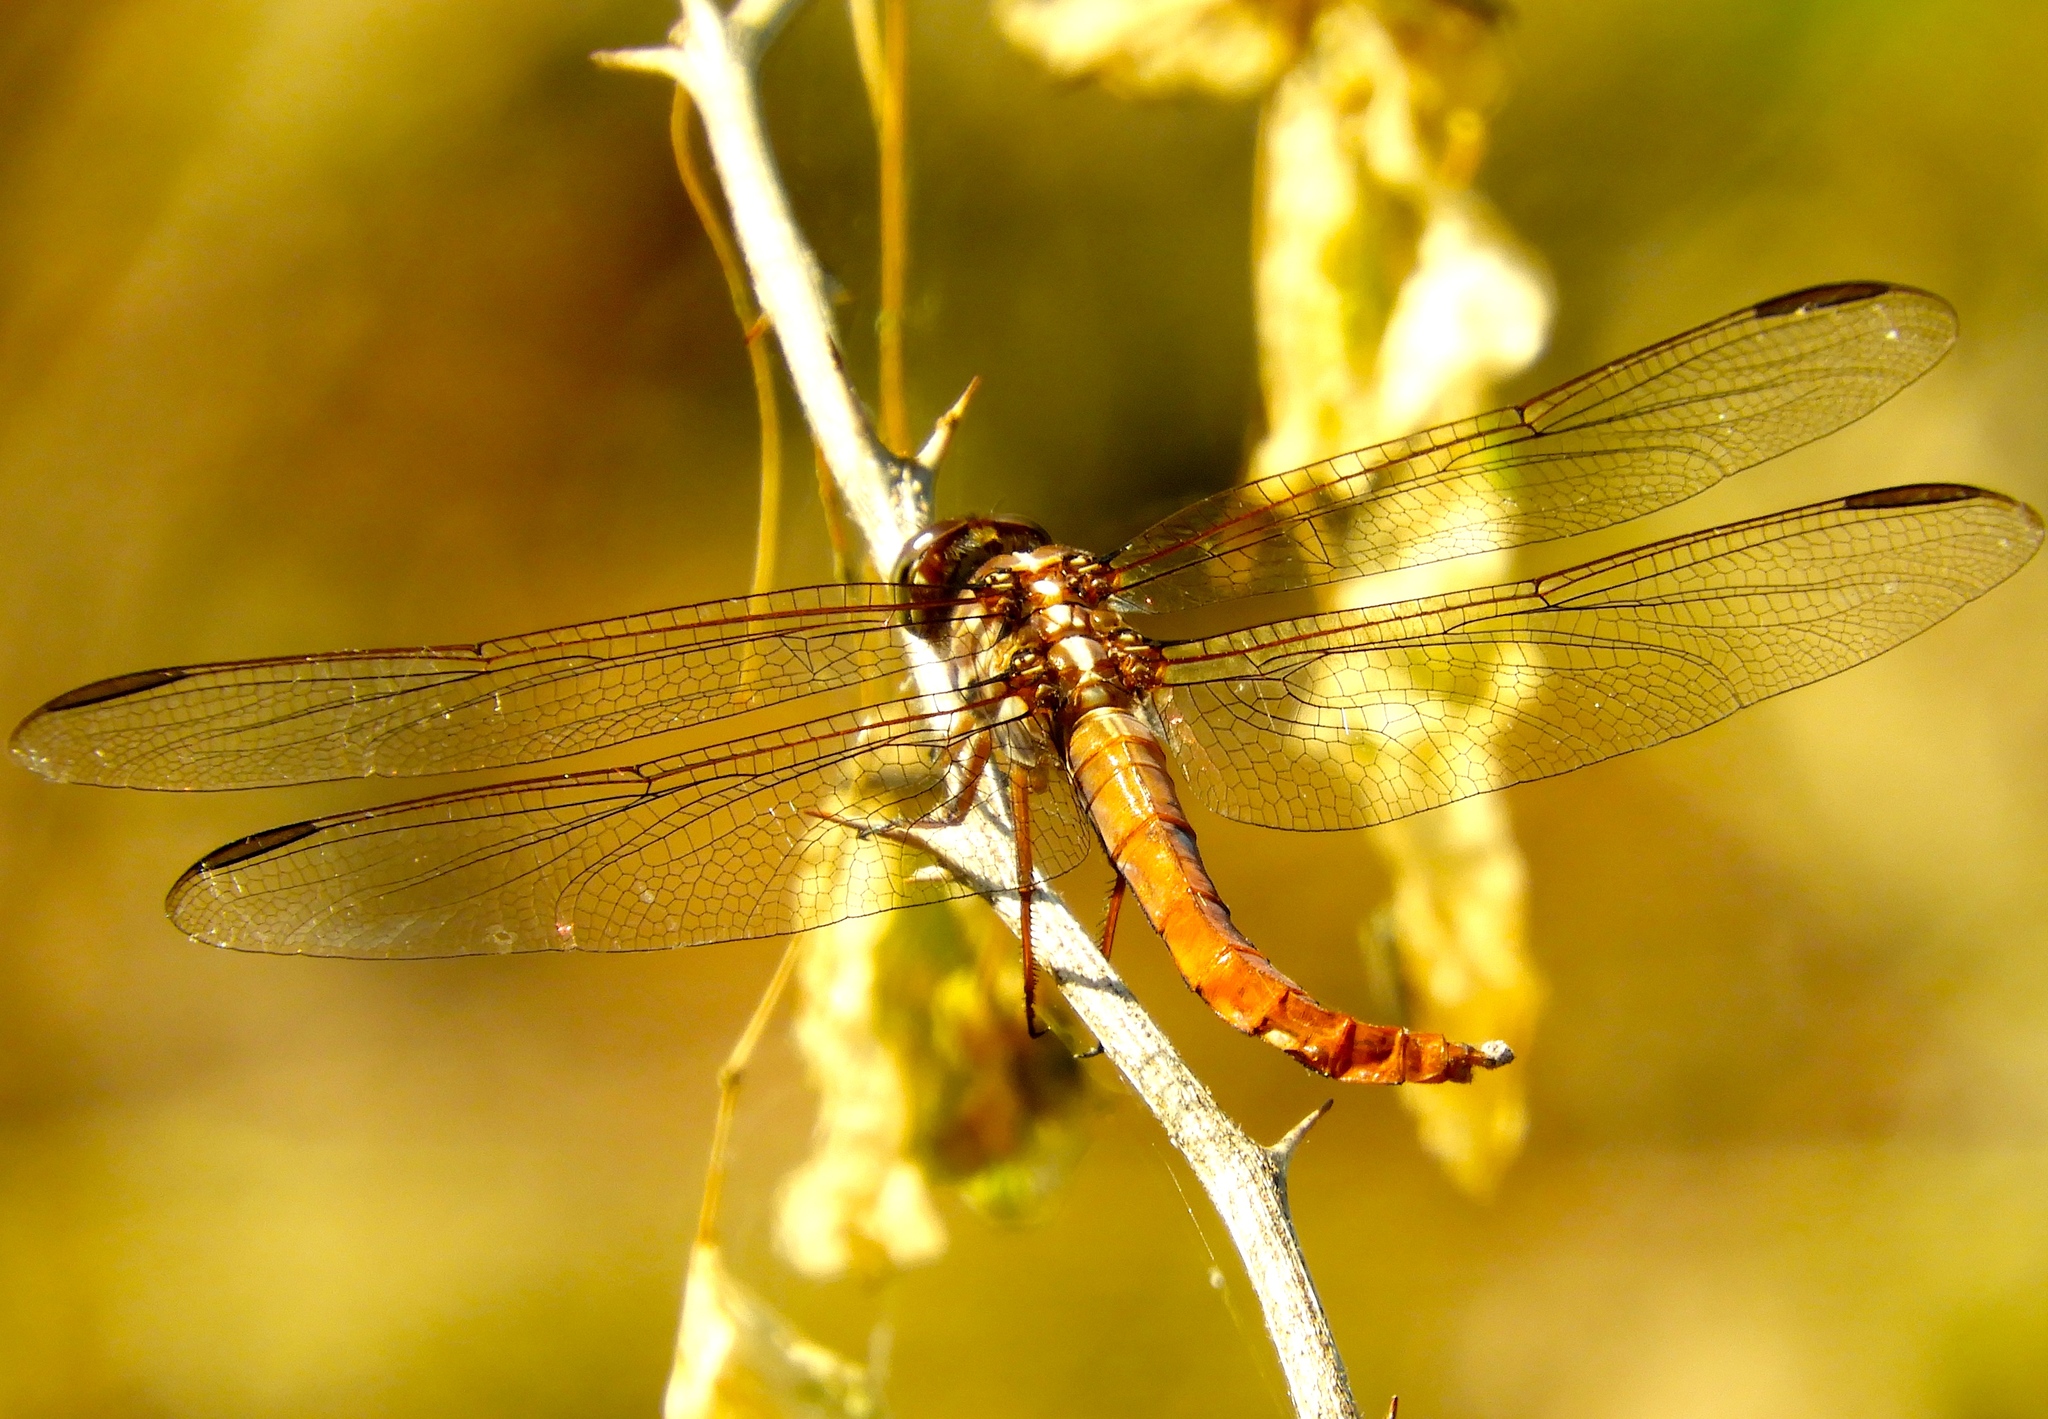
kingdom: Animalia
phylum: Arthropoda
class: Insecta
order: Odonata
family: Libellulidae
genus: Orthemis
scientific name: Orthemis ferruginea
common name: Roseate skimmer
